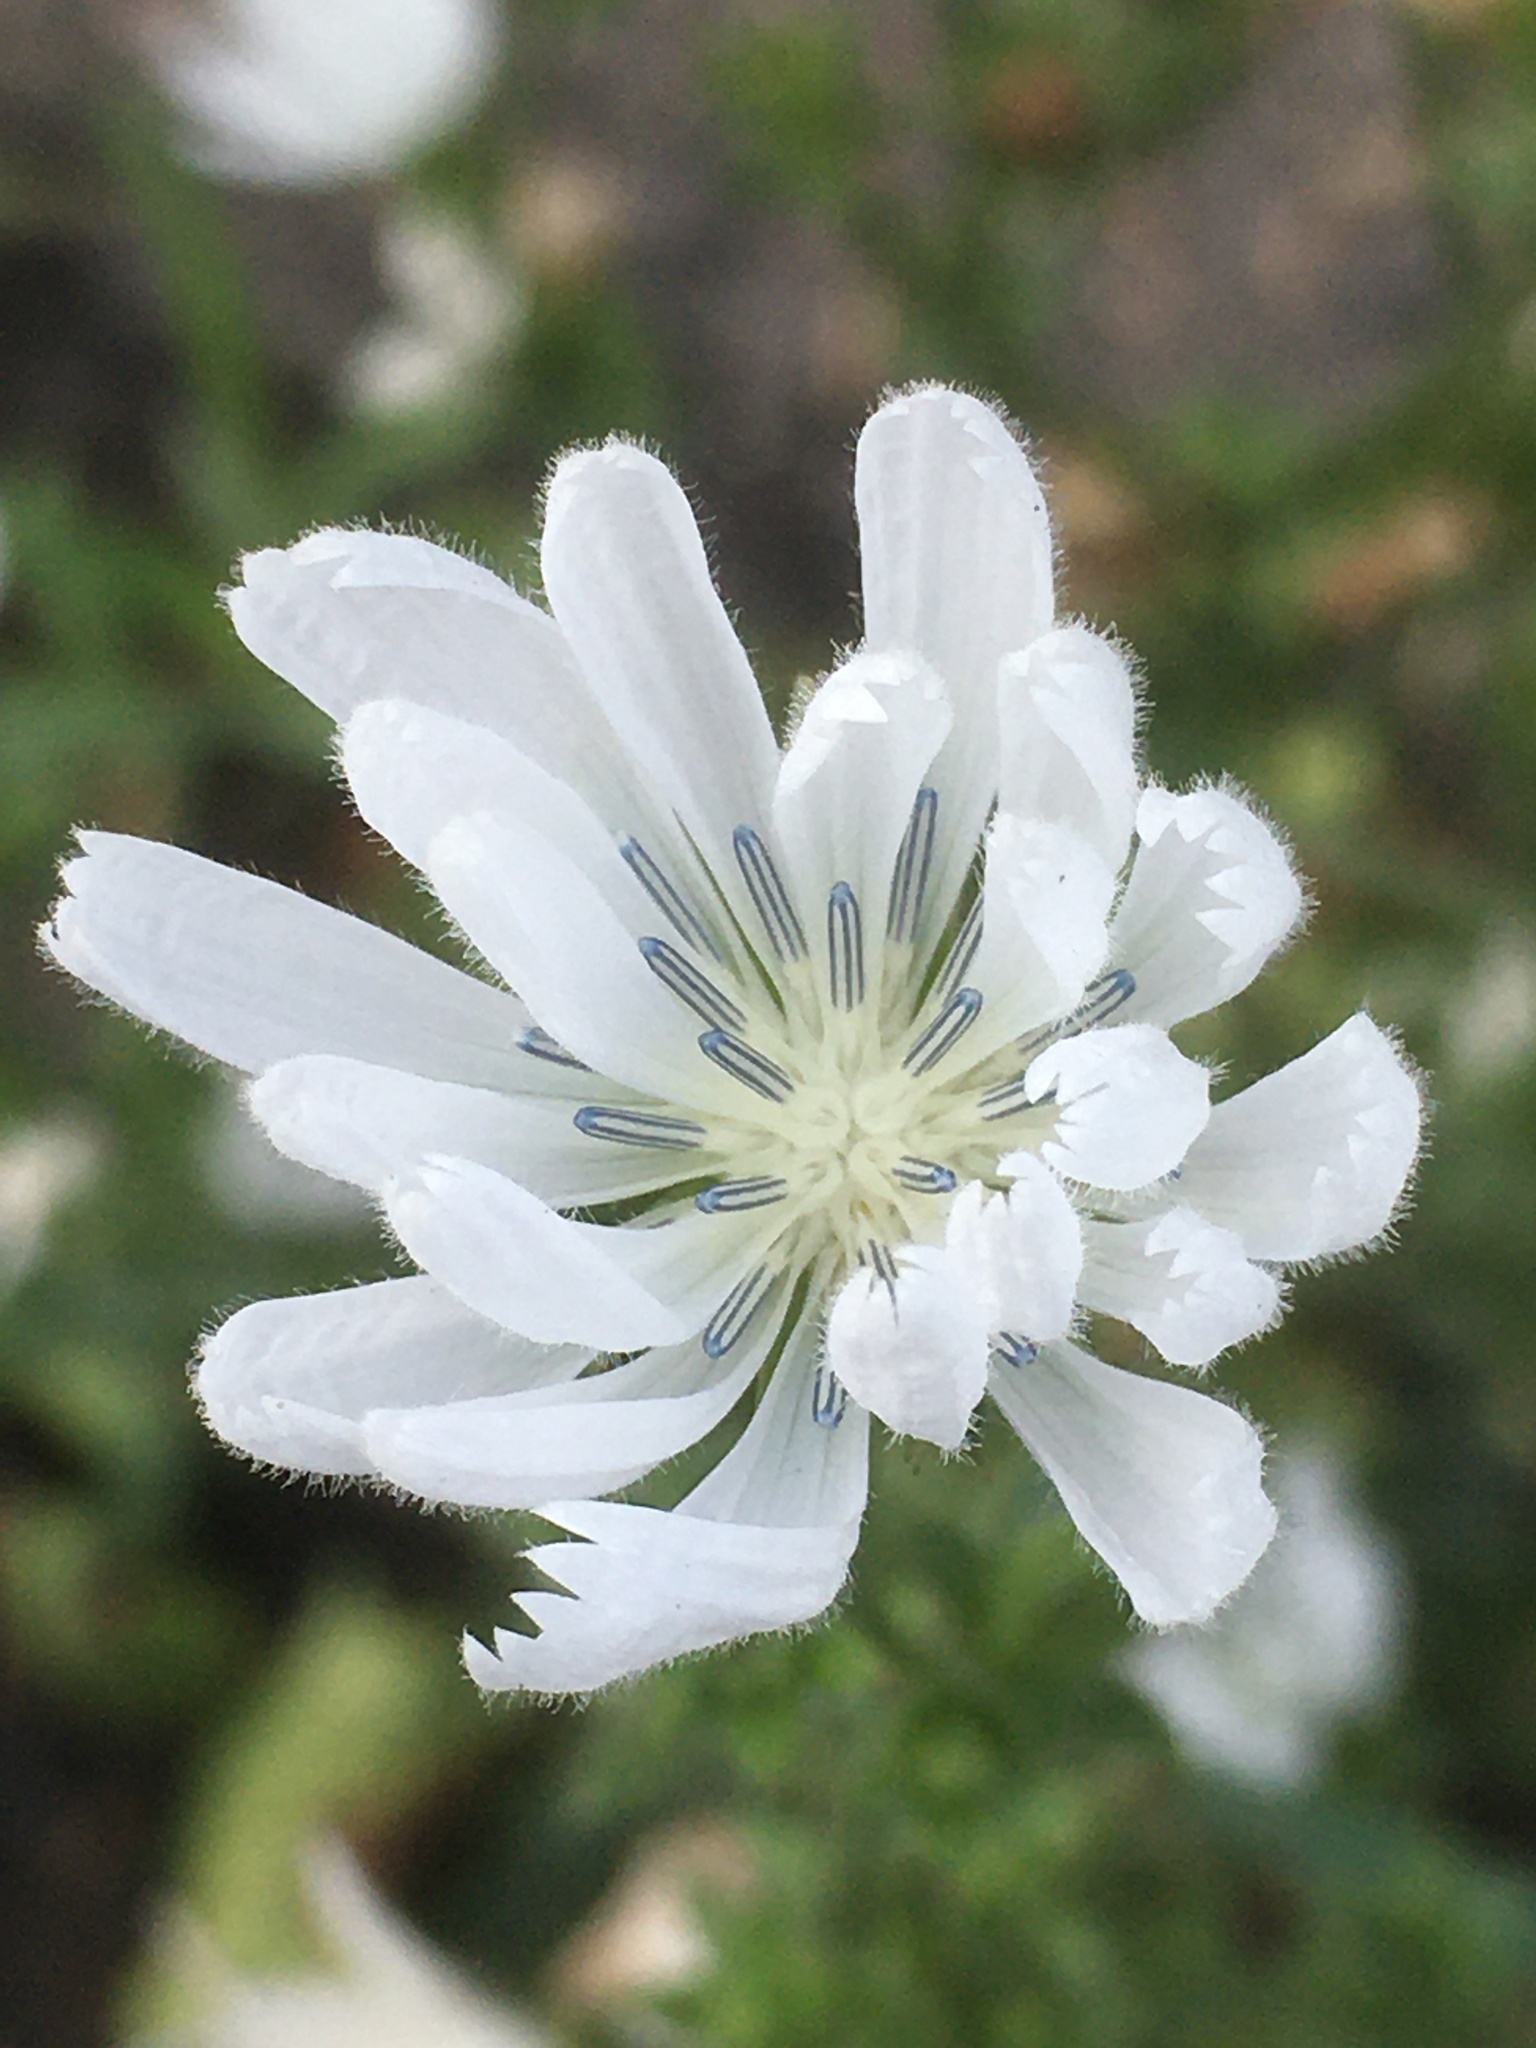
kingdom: Plantae
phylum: Tracheophyta
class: Magnoliopsida
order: Asterales
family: Asteraceae
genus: Cichorium
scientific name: Cichorium intybus
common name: Chicory
